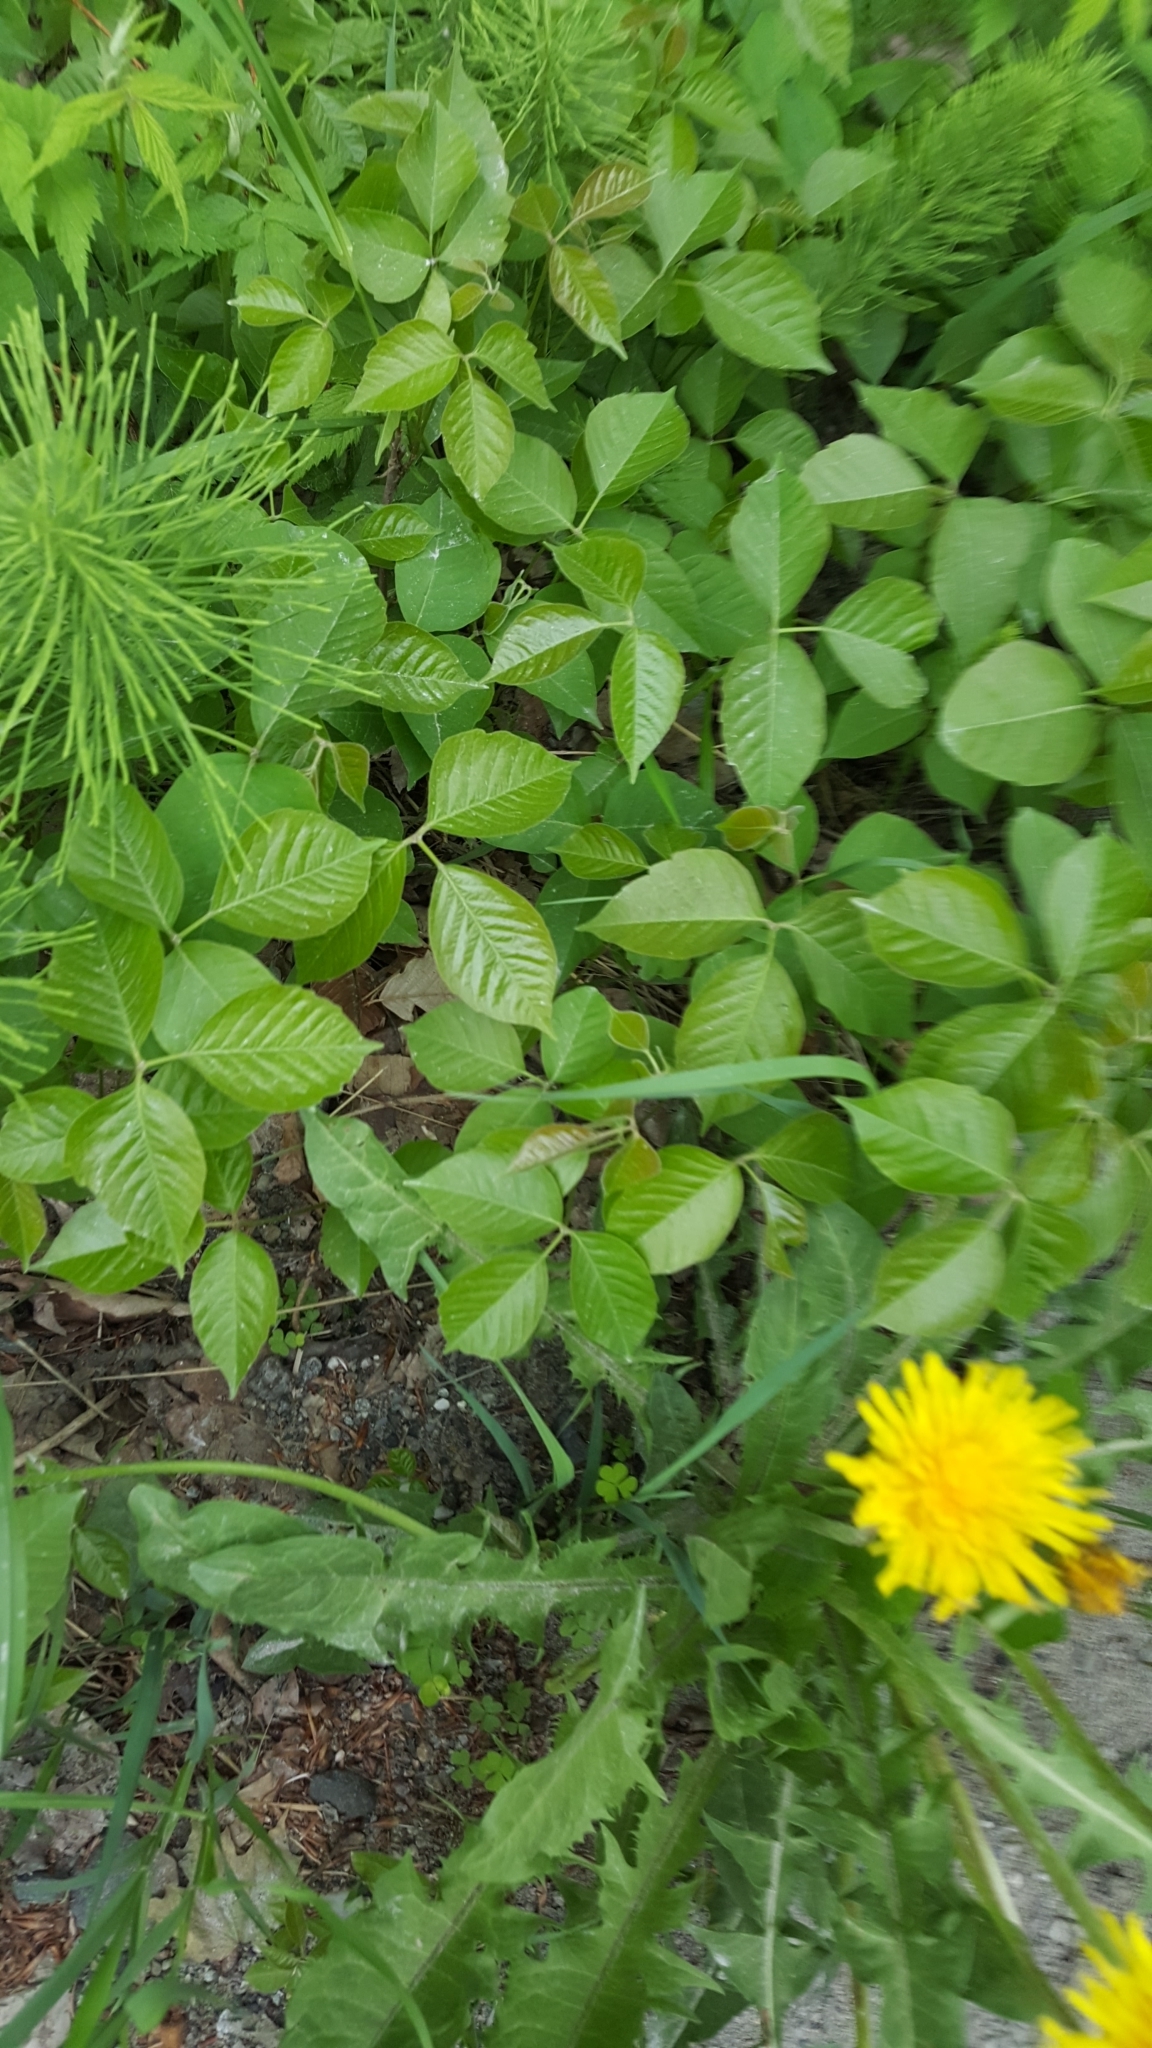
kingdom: Plantae
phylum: Tracheophyta
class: Magnoliopsida
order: Sapindales
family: Anacardiaceae
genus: Toxicodendron
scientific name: Toxicodendron rydbergii
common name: Rydberg's poison-ivy
